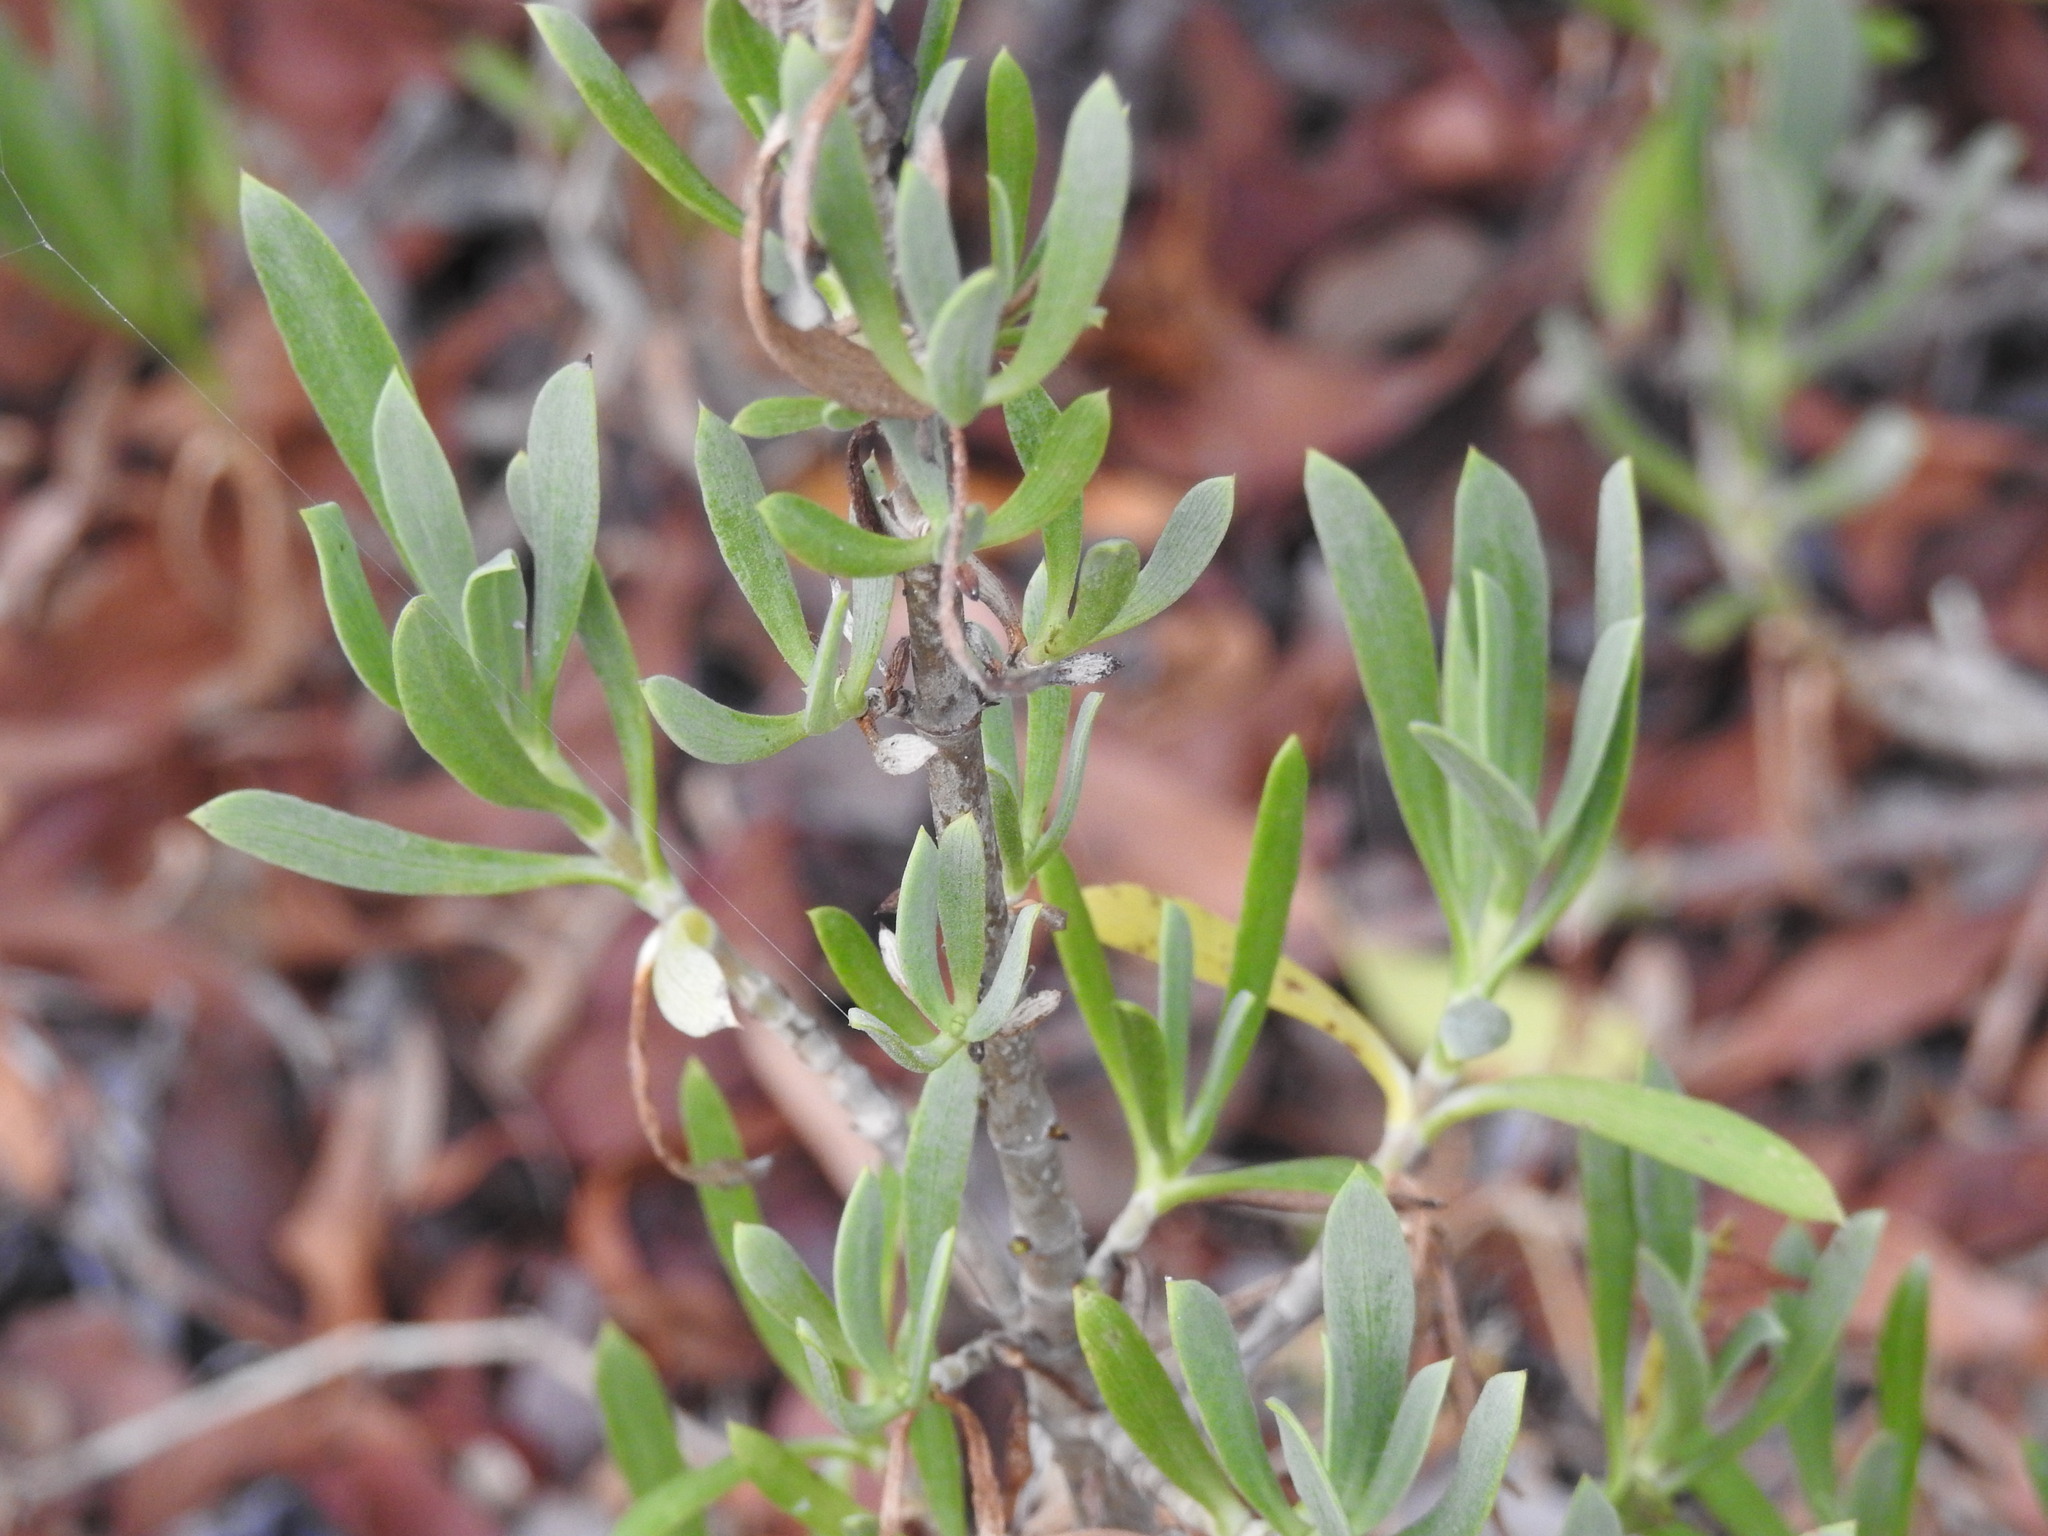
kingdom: Plantae
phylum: Tracheophyta
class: Magnoliopsida
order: Asterales
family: Asteraceae
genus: Borrichia
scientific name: Borrichia frutescens
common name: Sea oxeye
